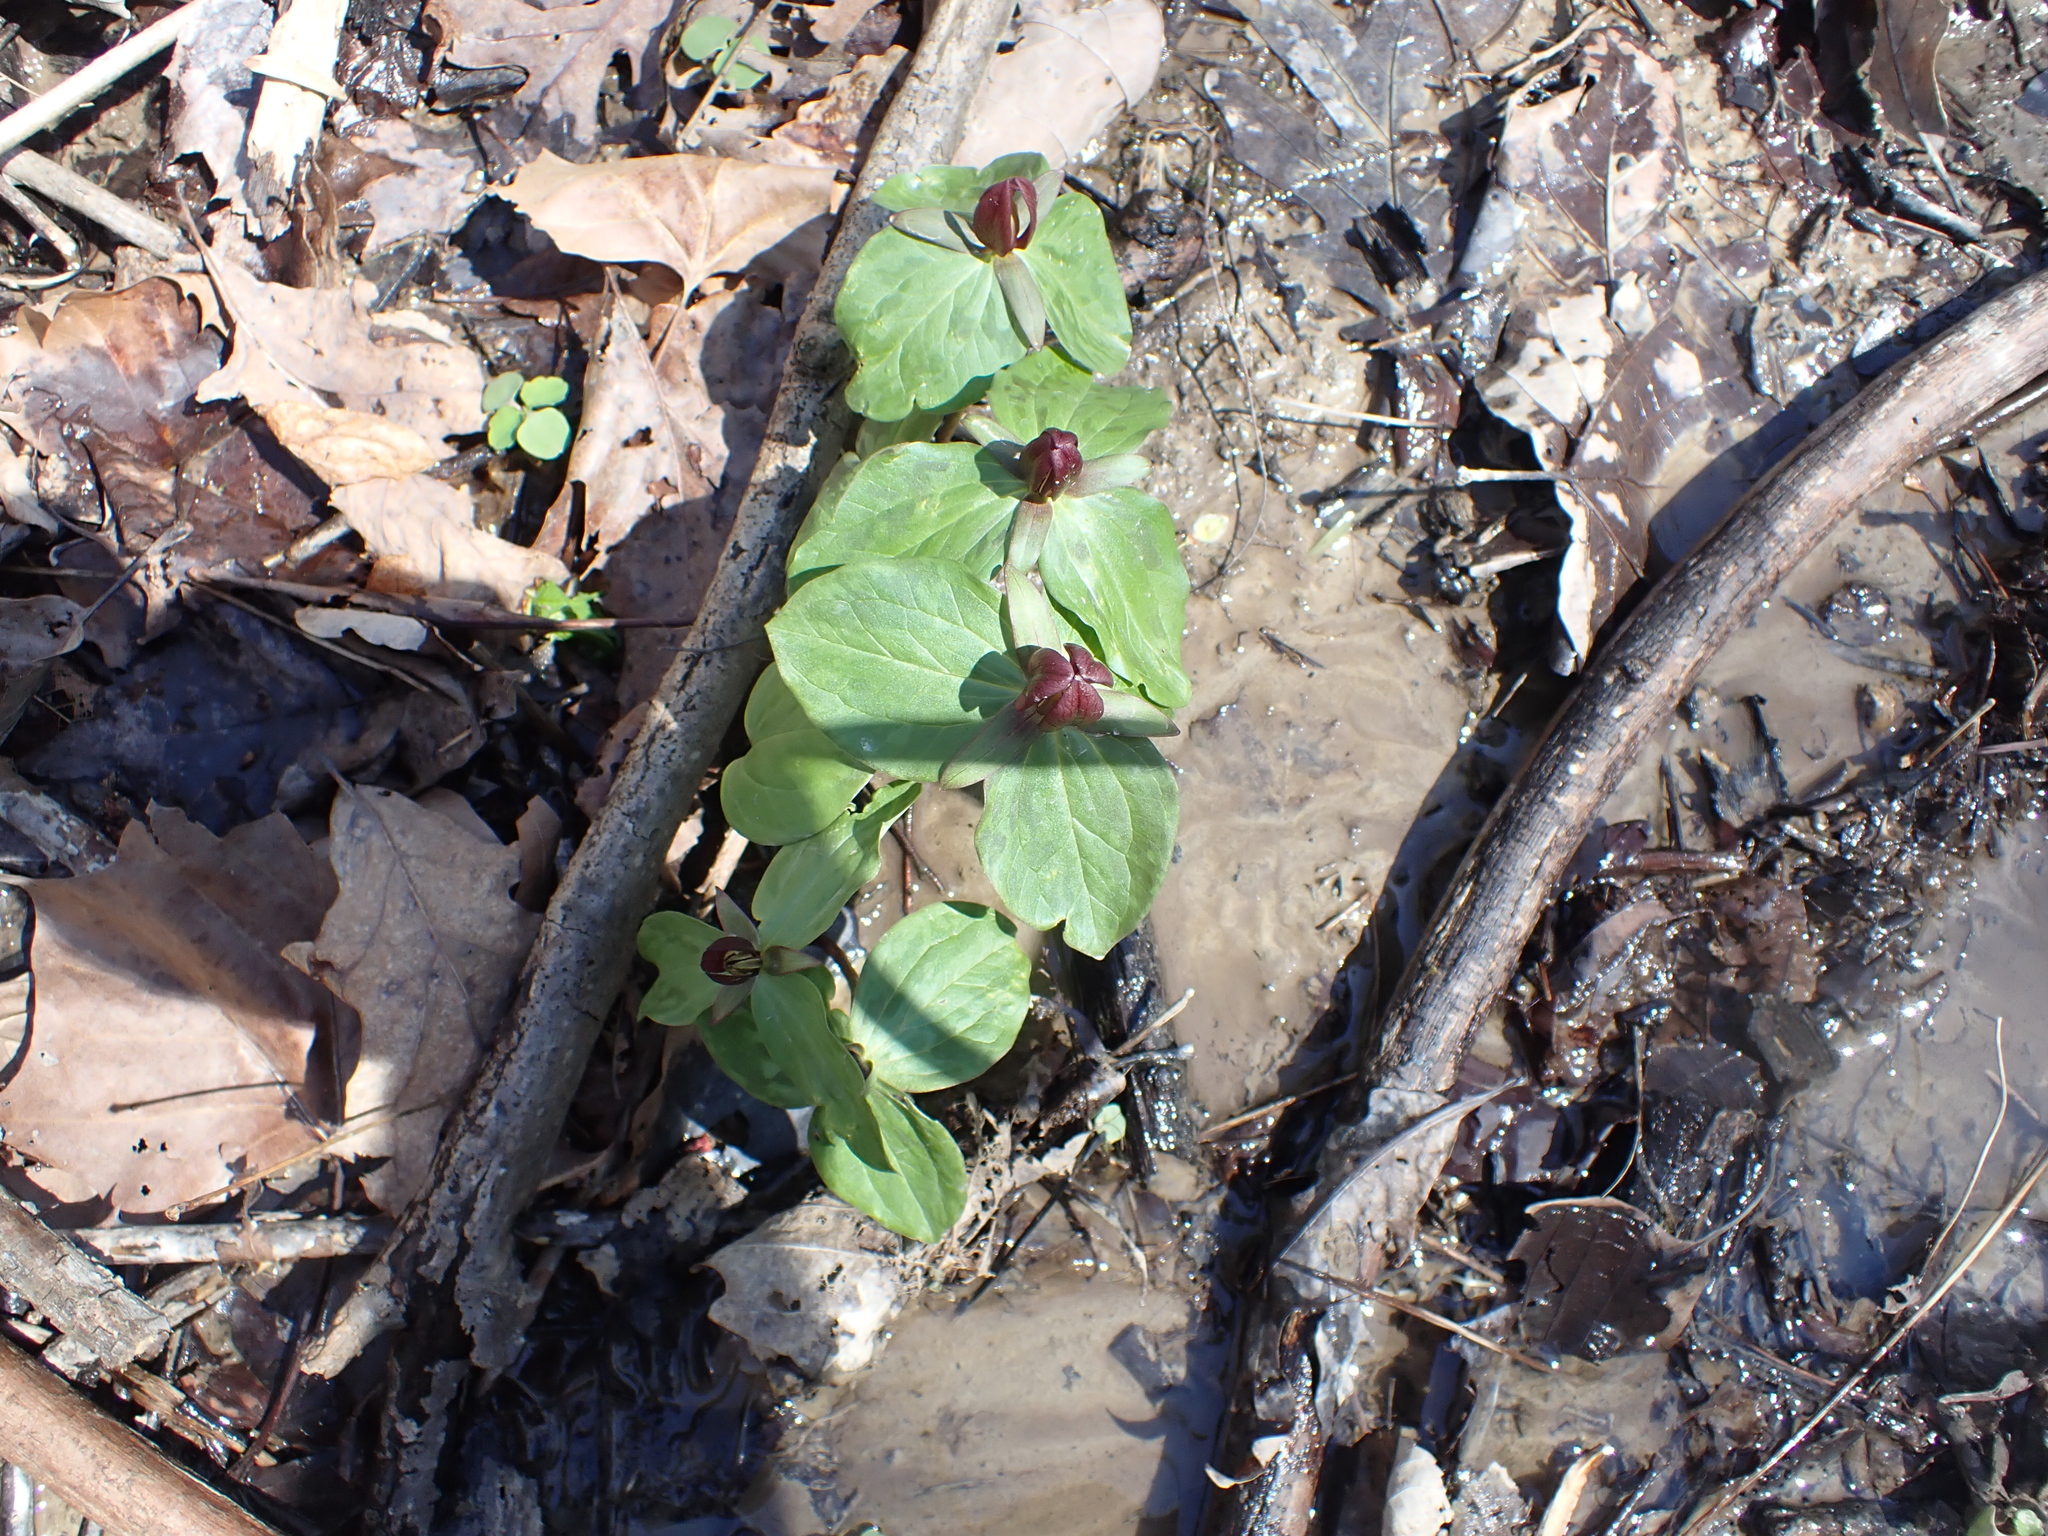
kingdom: Plantae
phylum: Tracheophyta
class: Liliopsida
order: Liliales
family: Melanthiaceae
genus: Trillium
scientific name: Trillium sessile
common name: Sessile trillium
